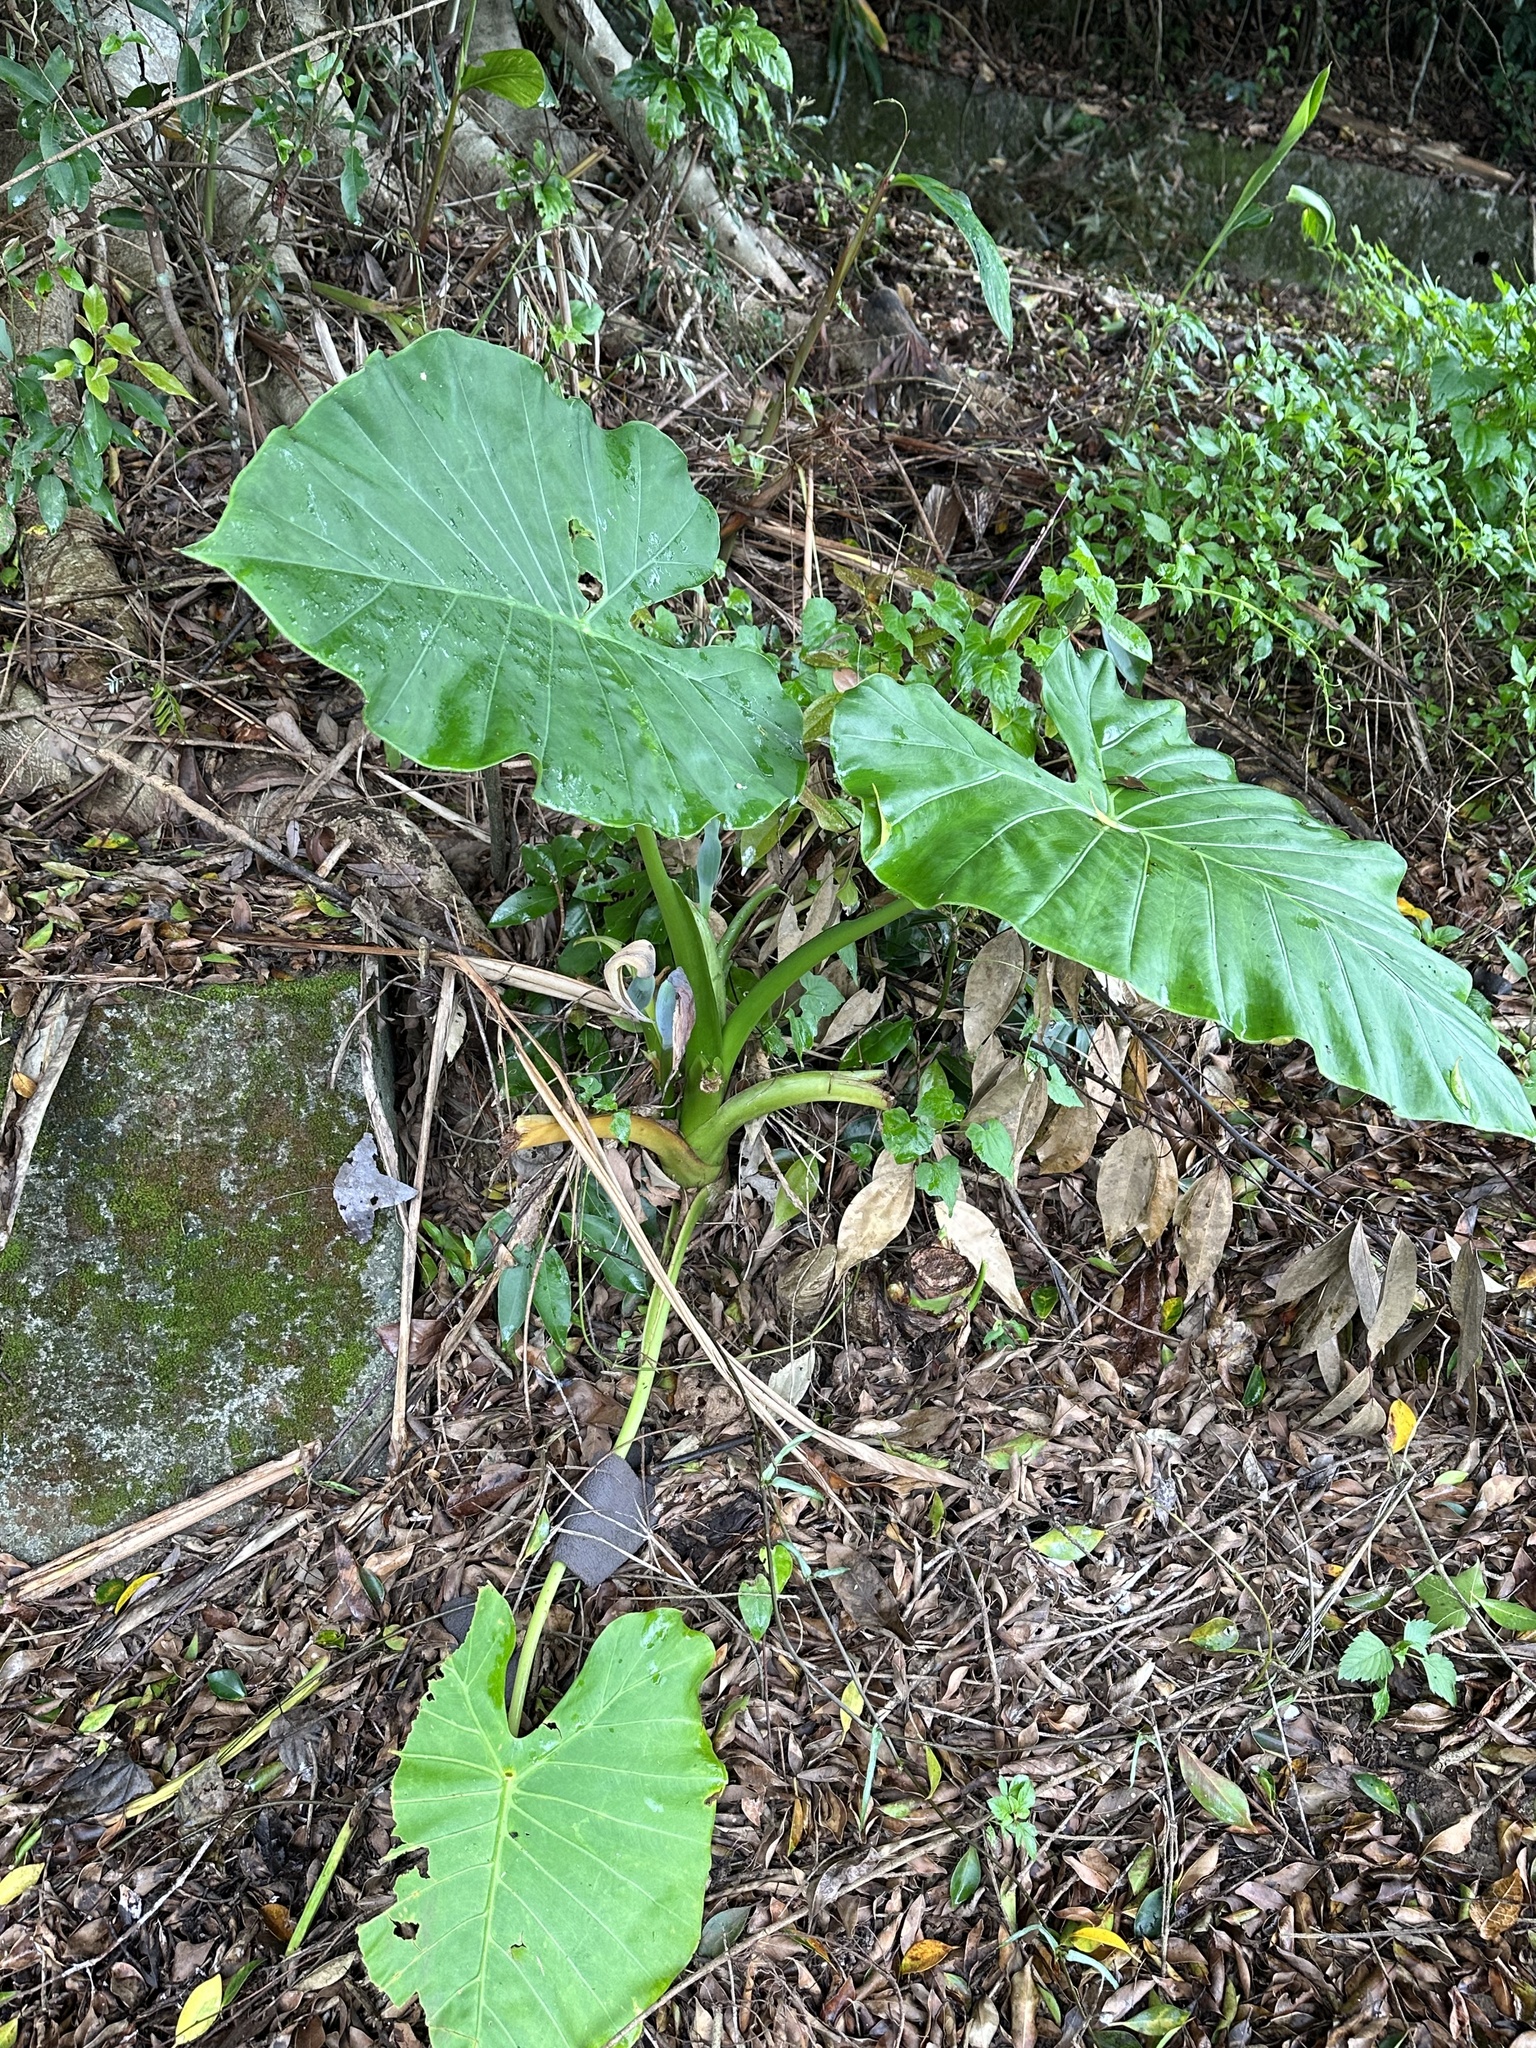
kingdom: Plantae
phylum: Tracheophyta
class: Liliopsida
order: Alismatales
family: Araceae
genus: Alocasia
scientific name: Alocasia odora
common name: Asian taro
